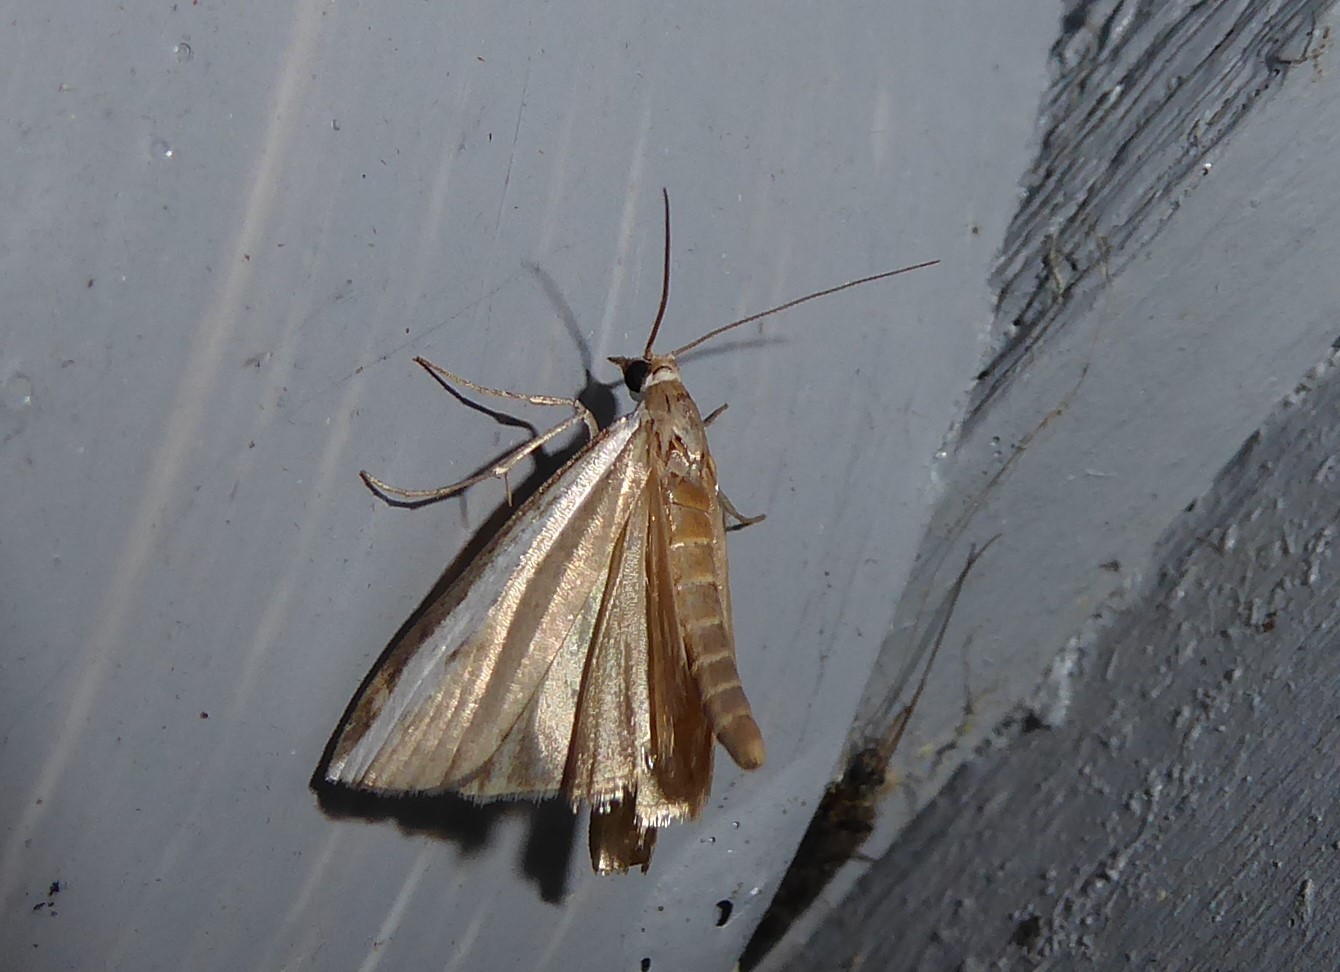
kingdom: Animalia
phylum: Arthropoda
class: Insecta
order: Lepidoptera
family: Crambidae
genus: Orocrambus
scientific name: Orocrambus flexuosellus
